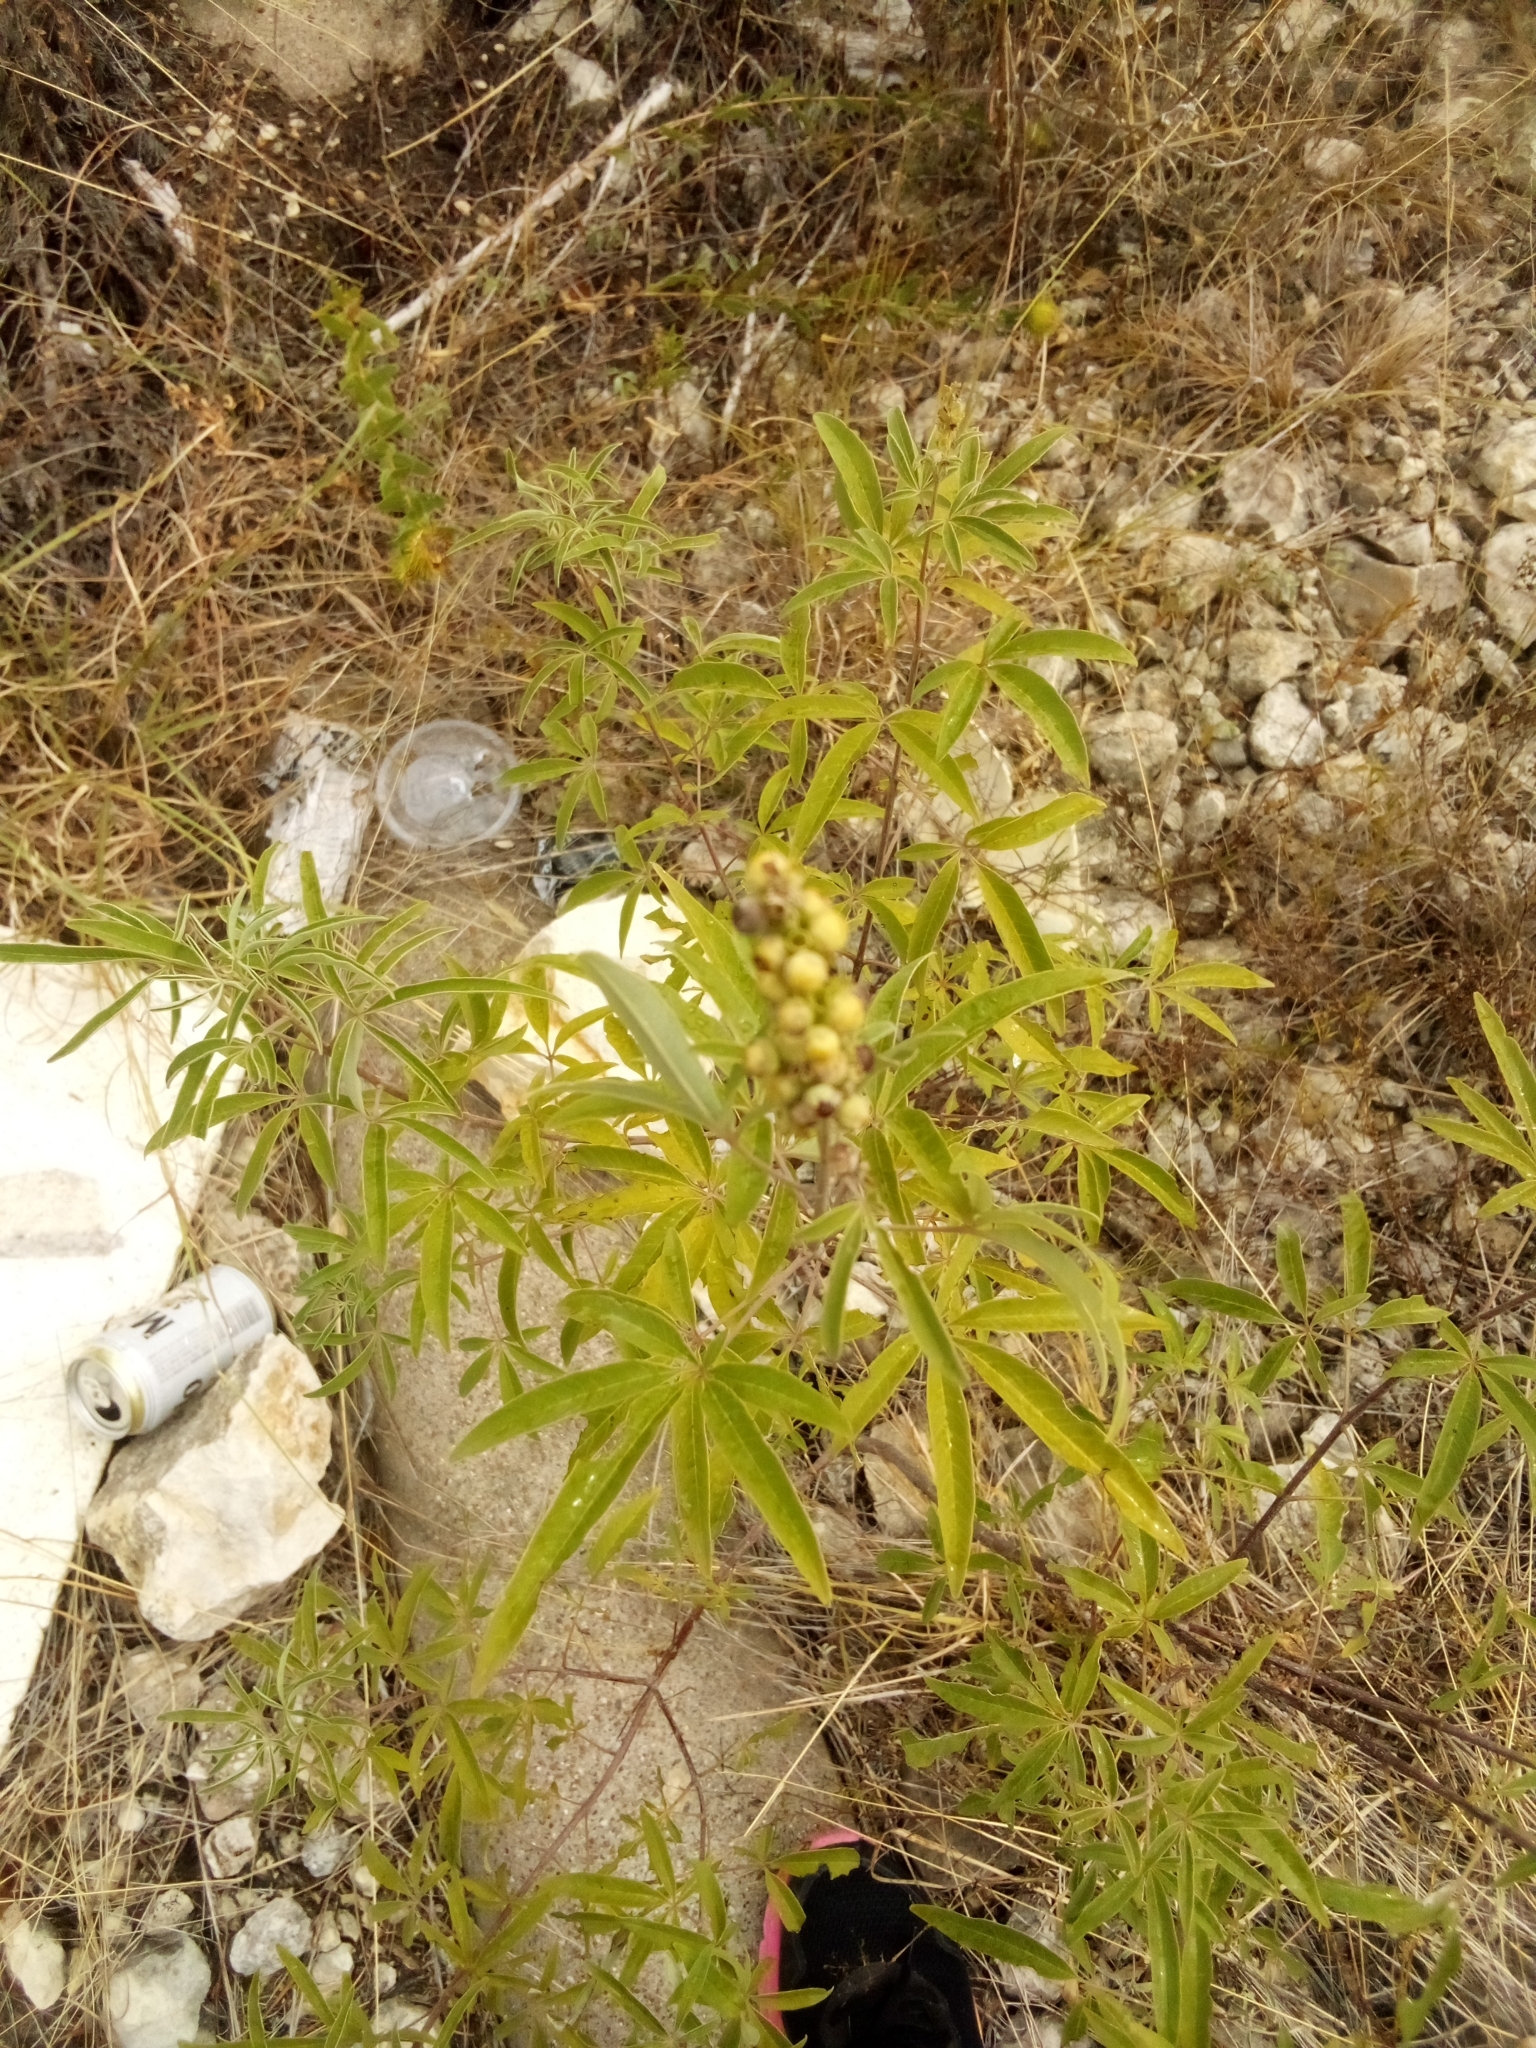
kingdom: Plantae
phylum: Tracheophyta
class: Magnoliopsida
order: Lamiales
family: Lamiaceae
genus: Vitex
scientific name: Vitex agnus-castus
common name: Chasteberry
